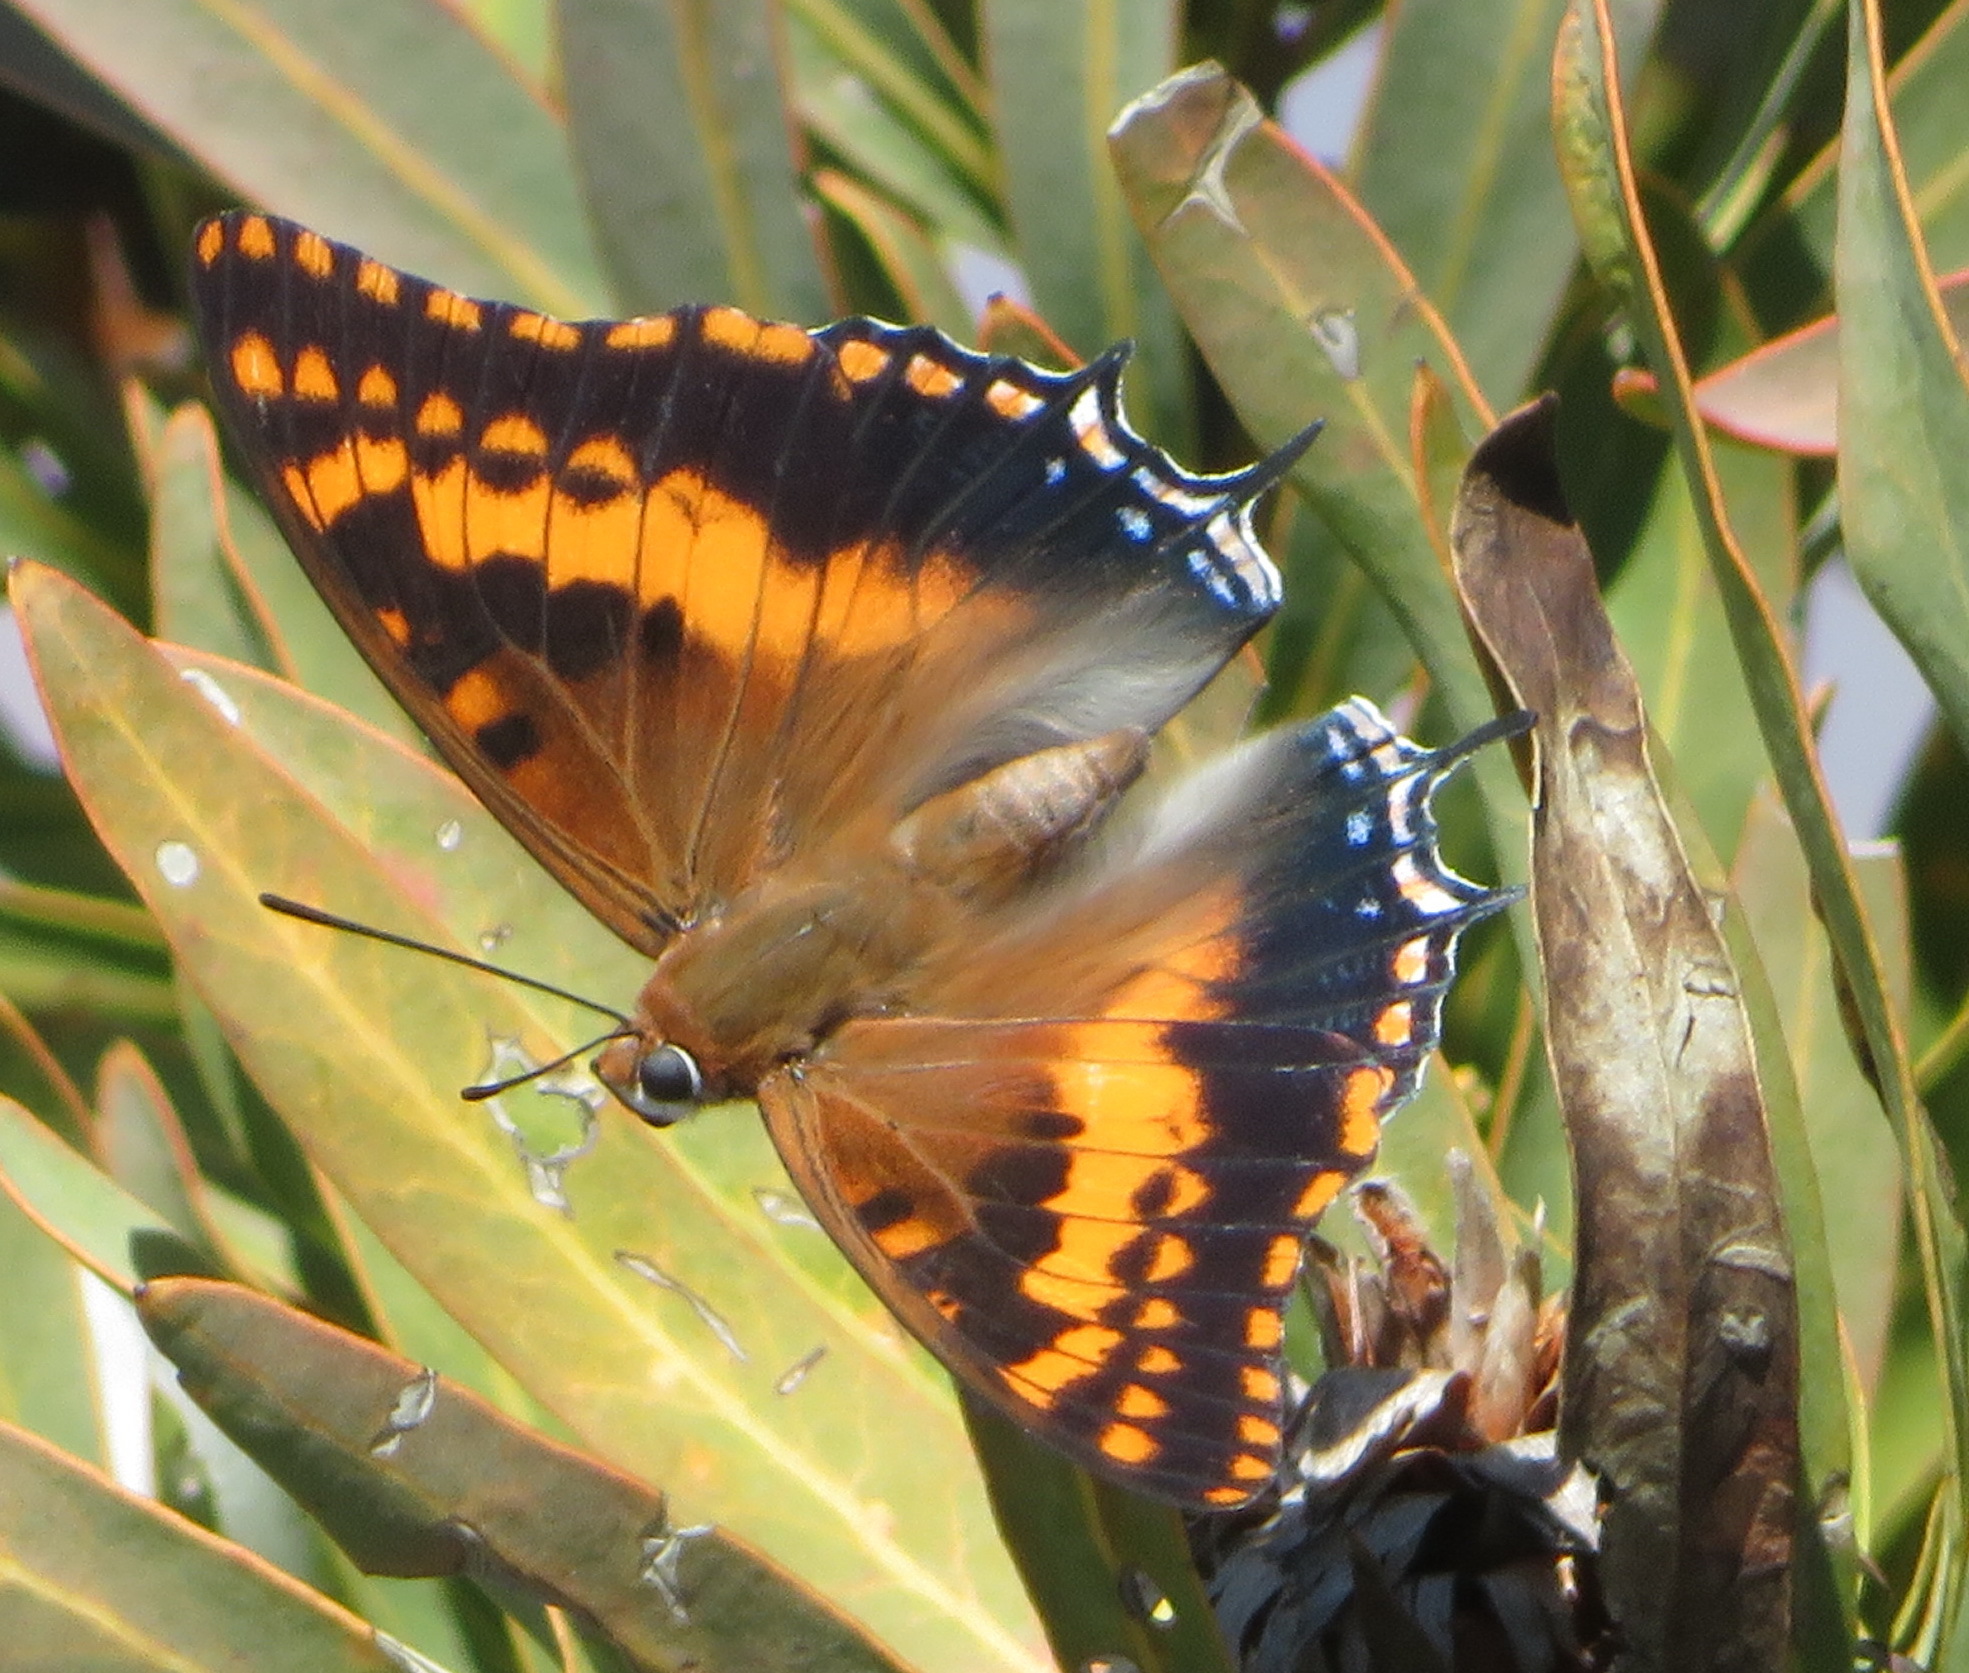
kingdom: Animalia
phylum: Arthropoda
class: Insecta
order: Lepidoptera
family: Nymphalidae
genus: Charaxes
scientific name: Charaxes pelias
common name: Protea charaxes
